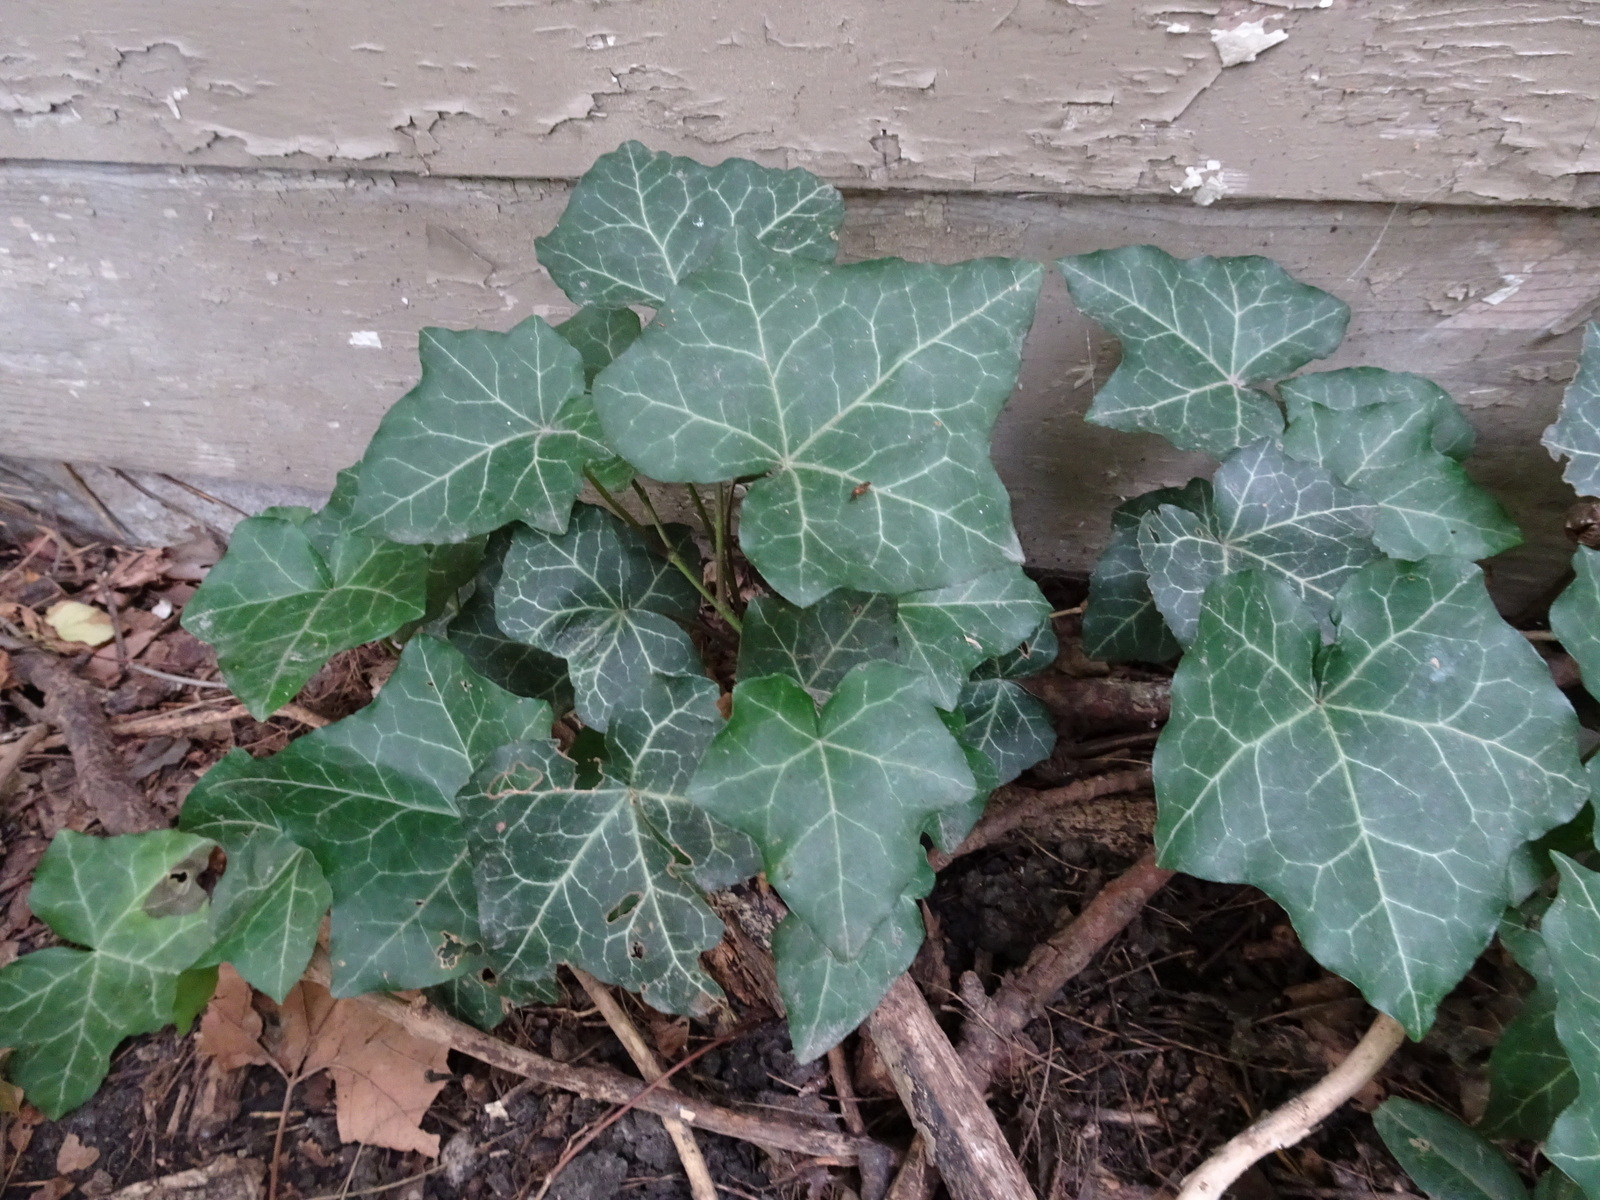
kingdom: Plantae
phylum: Tracheophyta
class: Magnoliopsida
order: Apiales
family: Araliaceae
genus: Hedera
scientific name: Hedera helix
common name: Ivy
